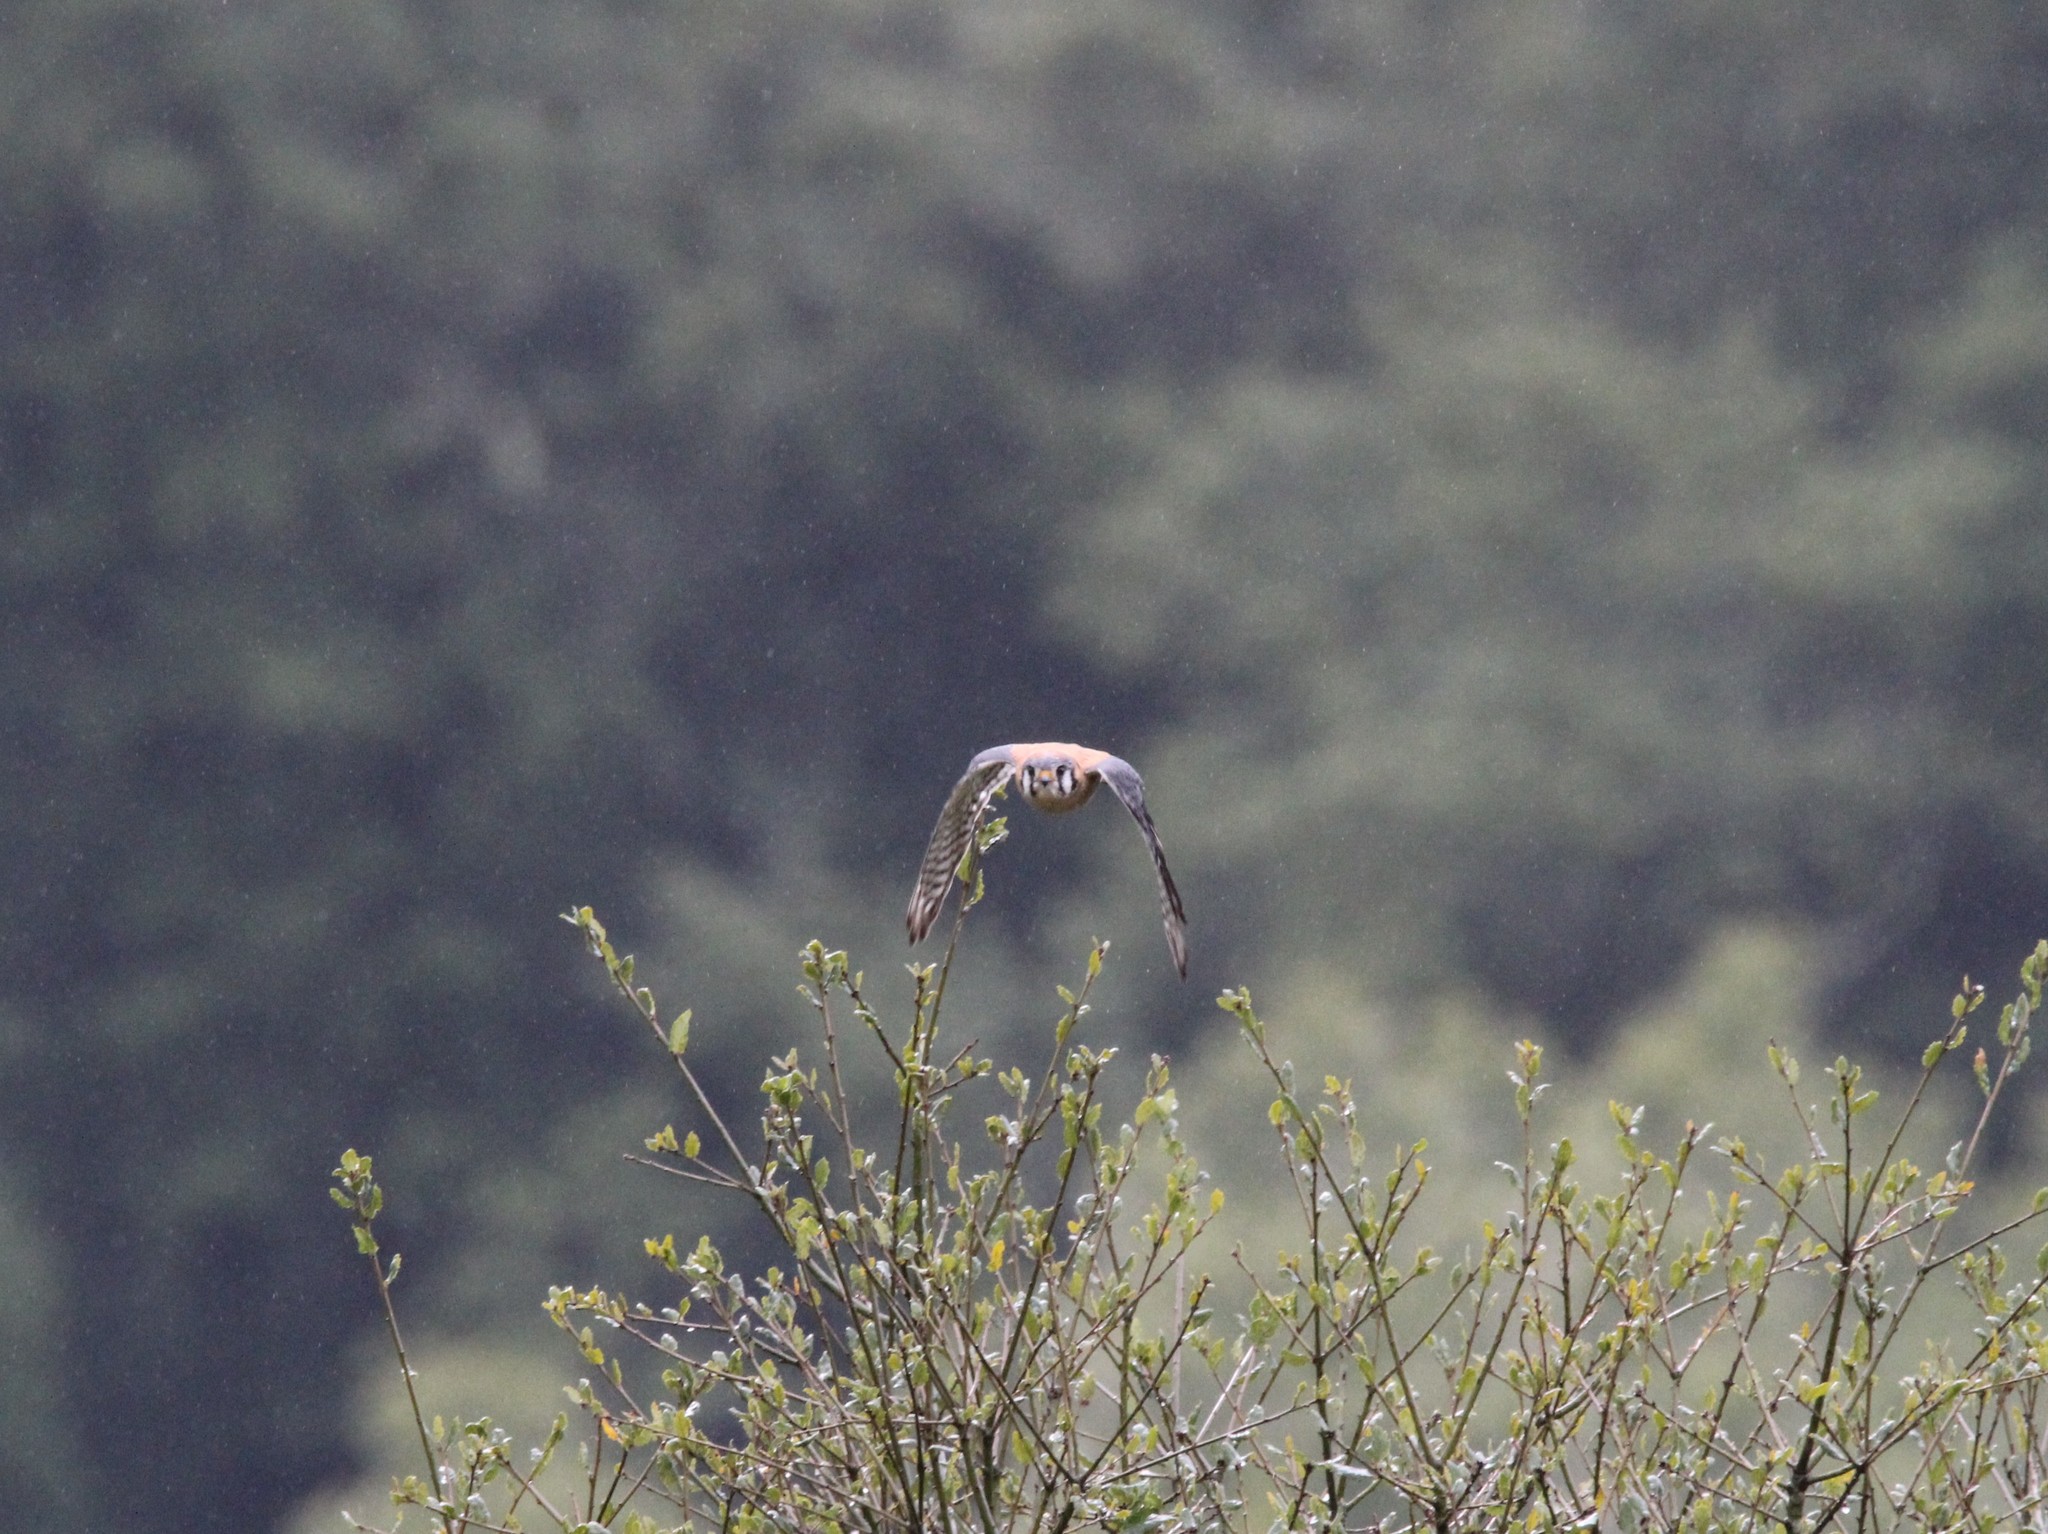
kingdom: Animalia
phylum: Chordata
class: Aves
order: Falconiformes
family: Falconidae
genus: Falco
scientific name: Falco sparverius
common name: American kestrel
